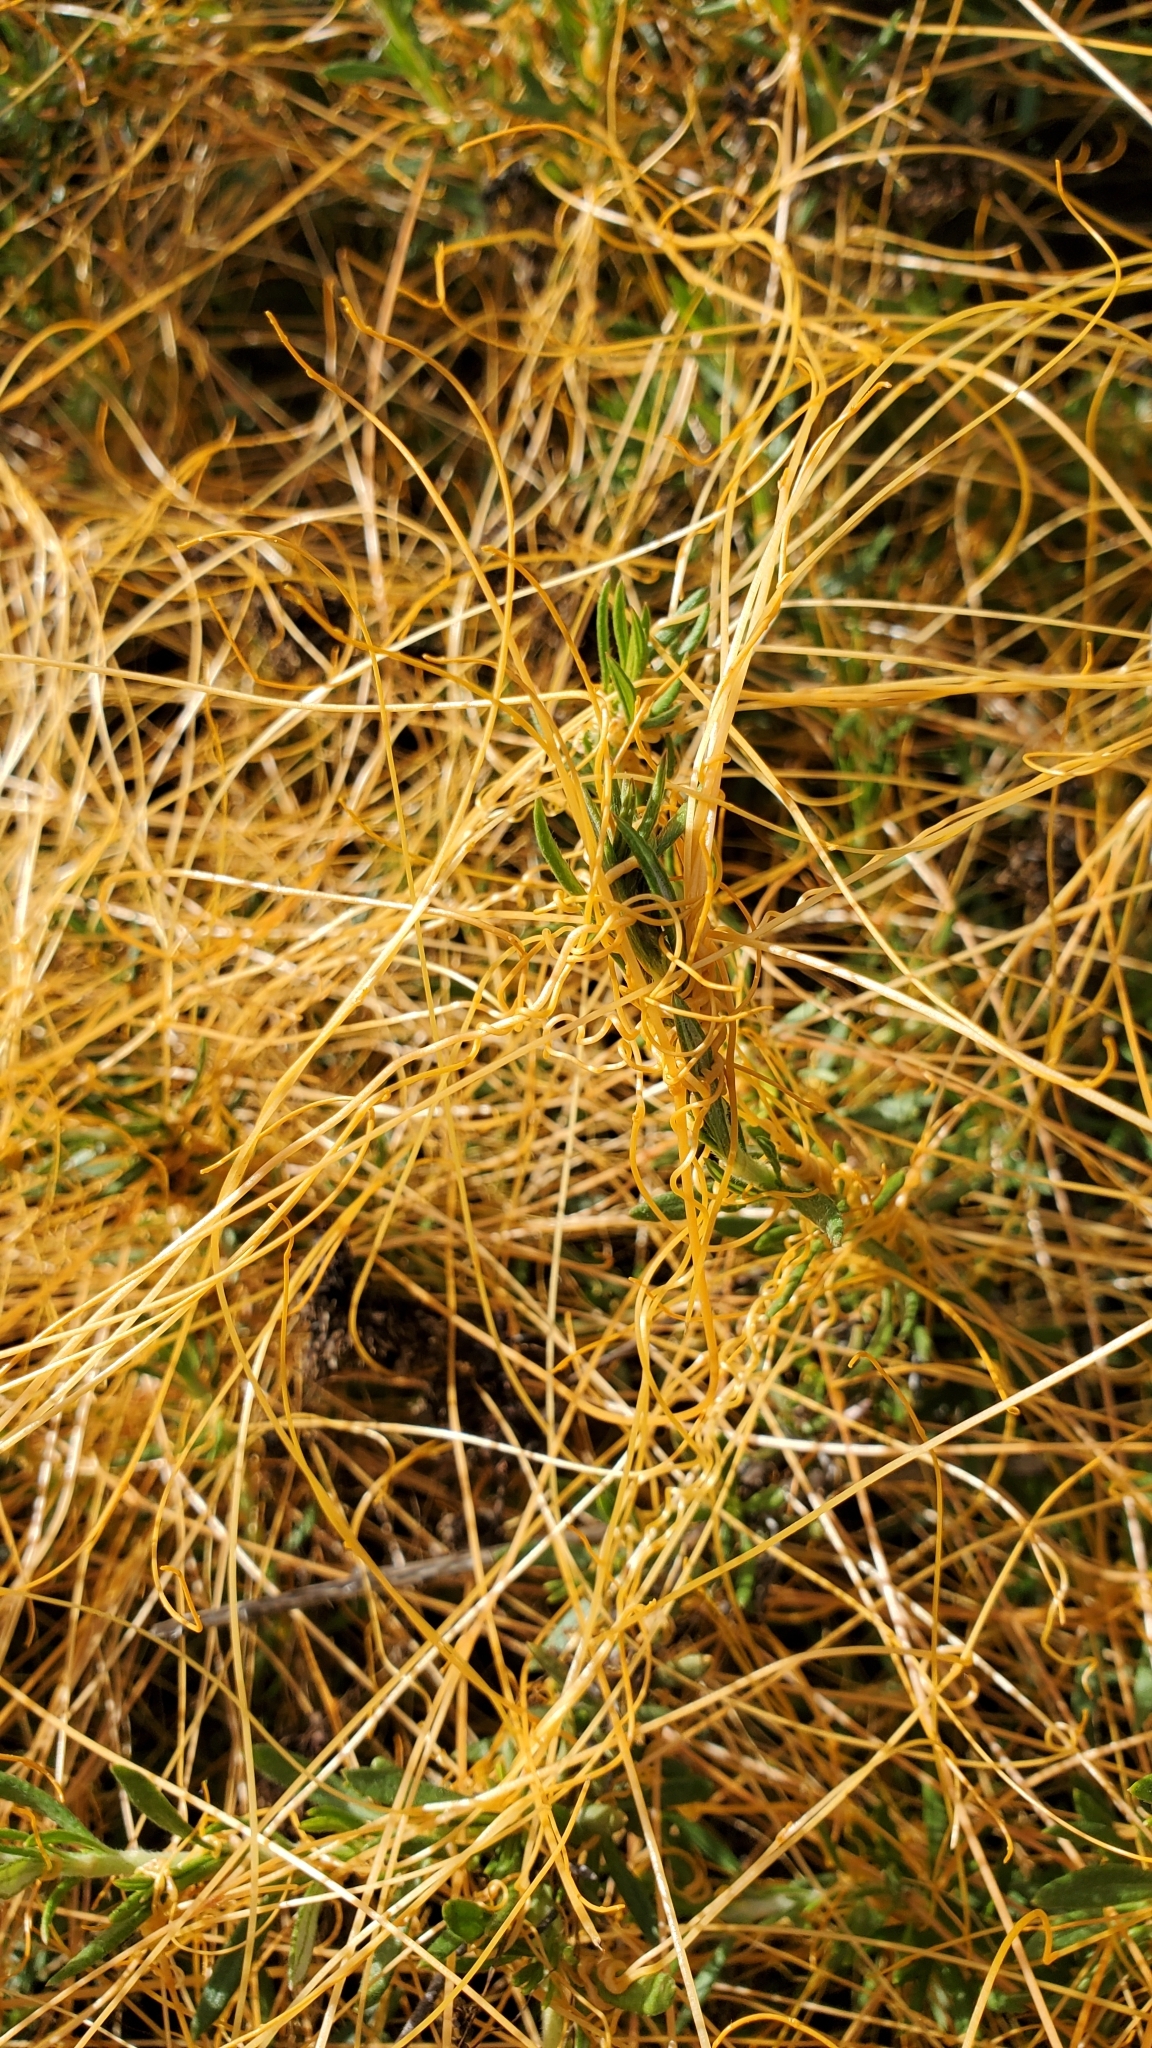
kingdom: Plantae
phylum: Tracheophyta
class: Magnoliopsida
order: Solanales
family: Convolvulaceae
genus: Cuscuta
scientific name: Cuscuta californica
